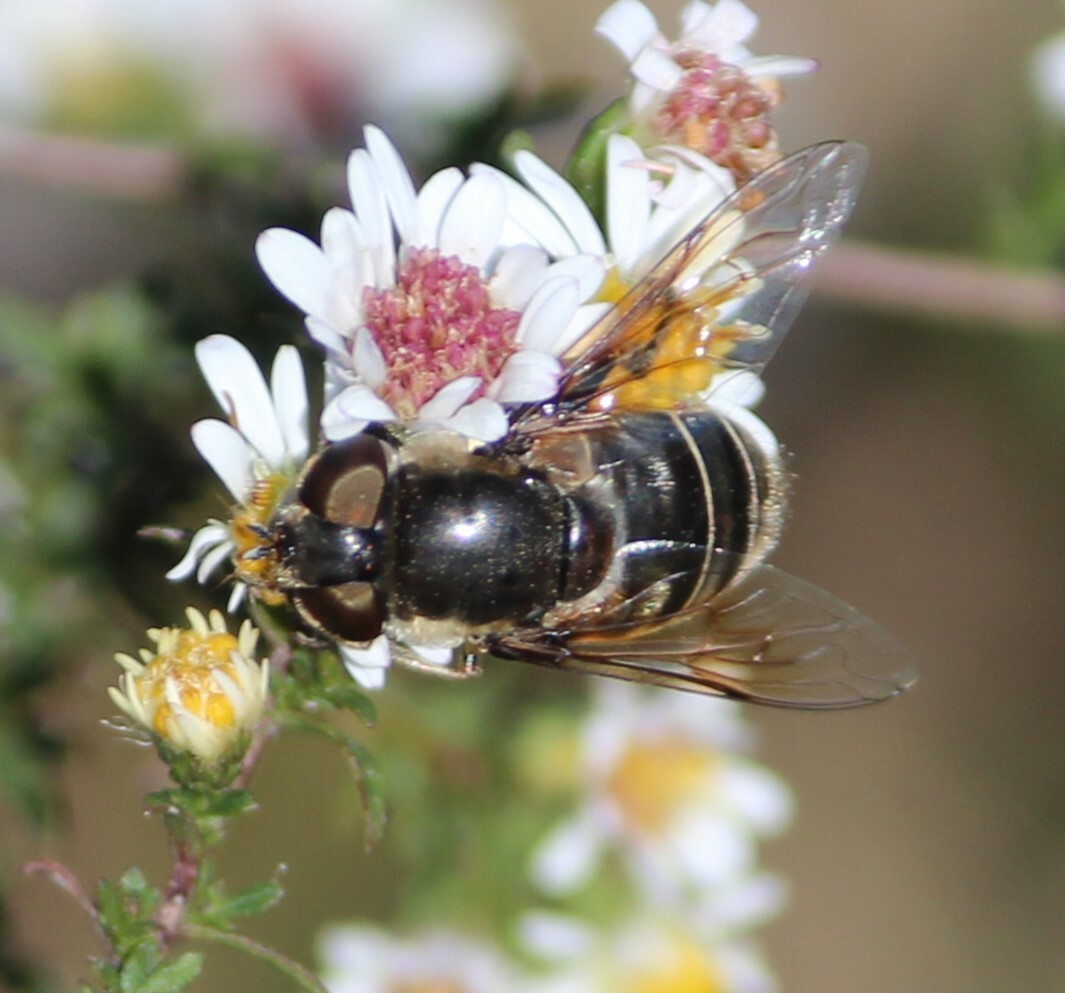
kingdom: Animalia
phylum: Arthropoda
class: Insecta
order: Diptera
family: Syrphidae
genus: Eristalis
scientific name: Eristalis dimidiata
